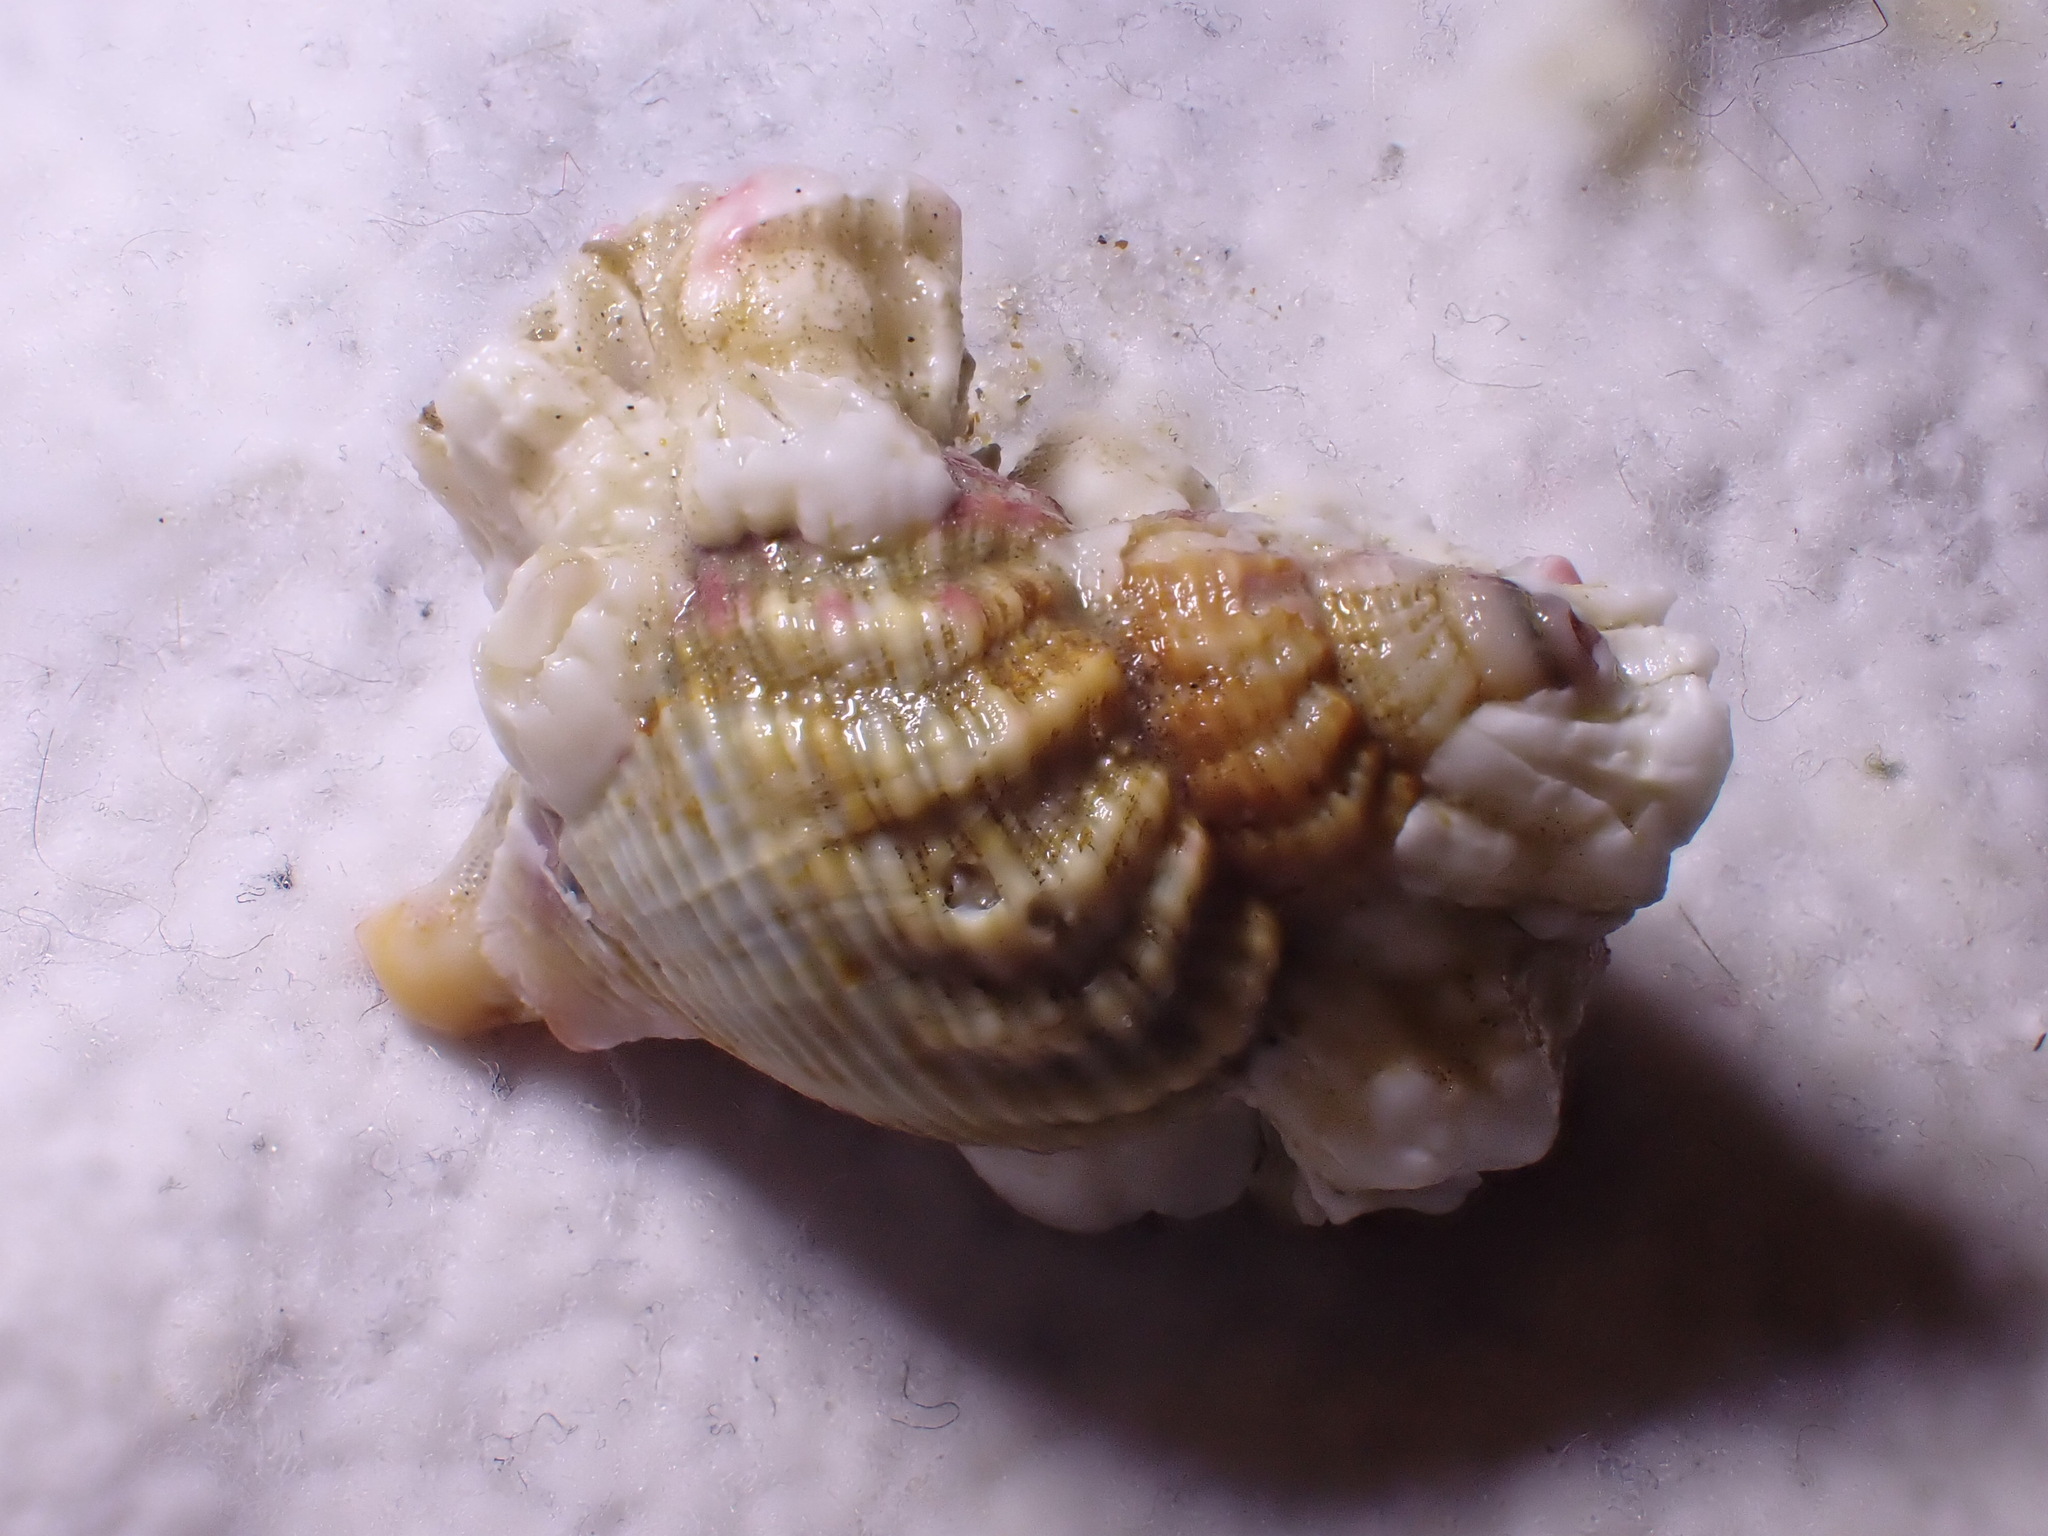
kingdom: Animalia
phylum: Mollusca
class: Gastropoda
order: Neogastropoda
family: Buccinidae
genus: Buccinum
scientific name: Buccinum undatum
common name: Common whelk
